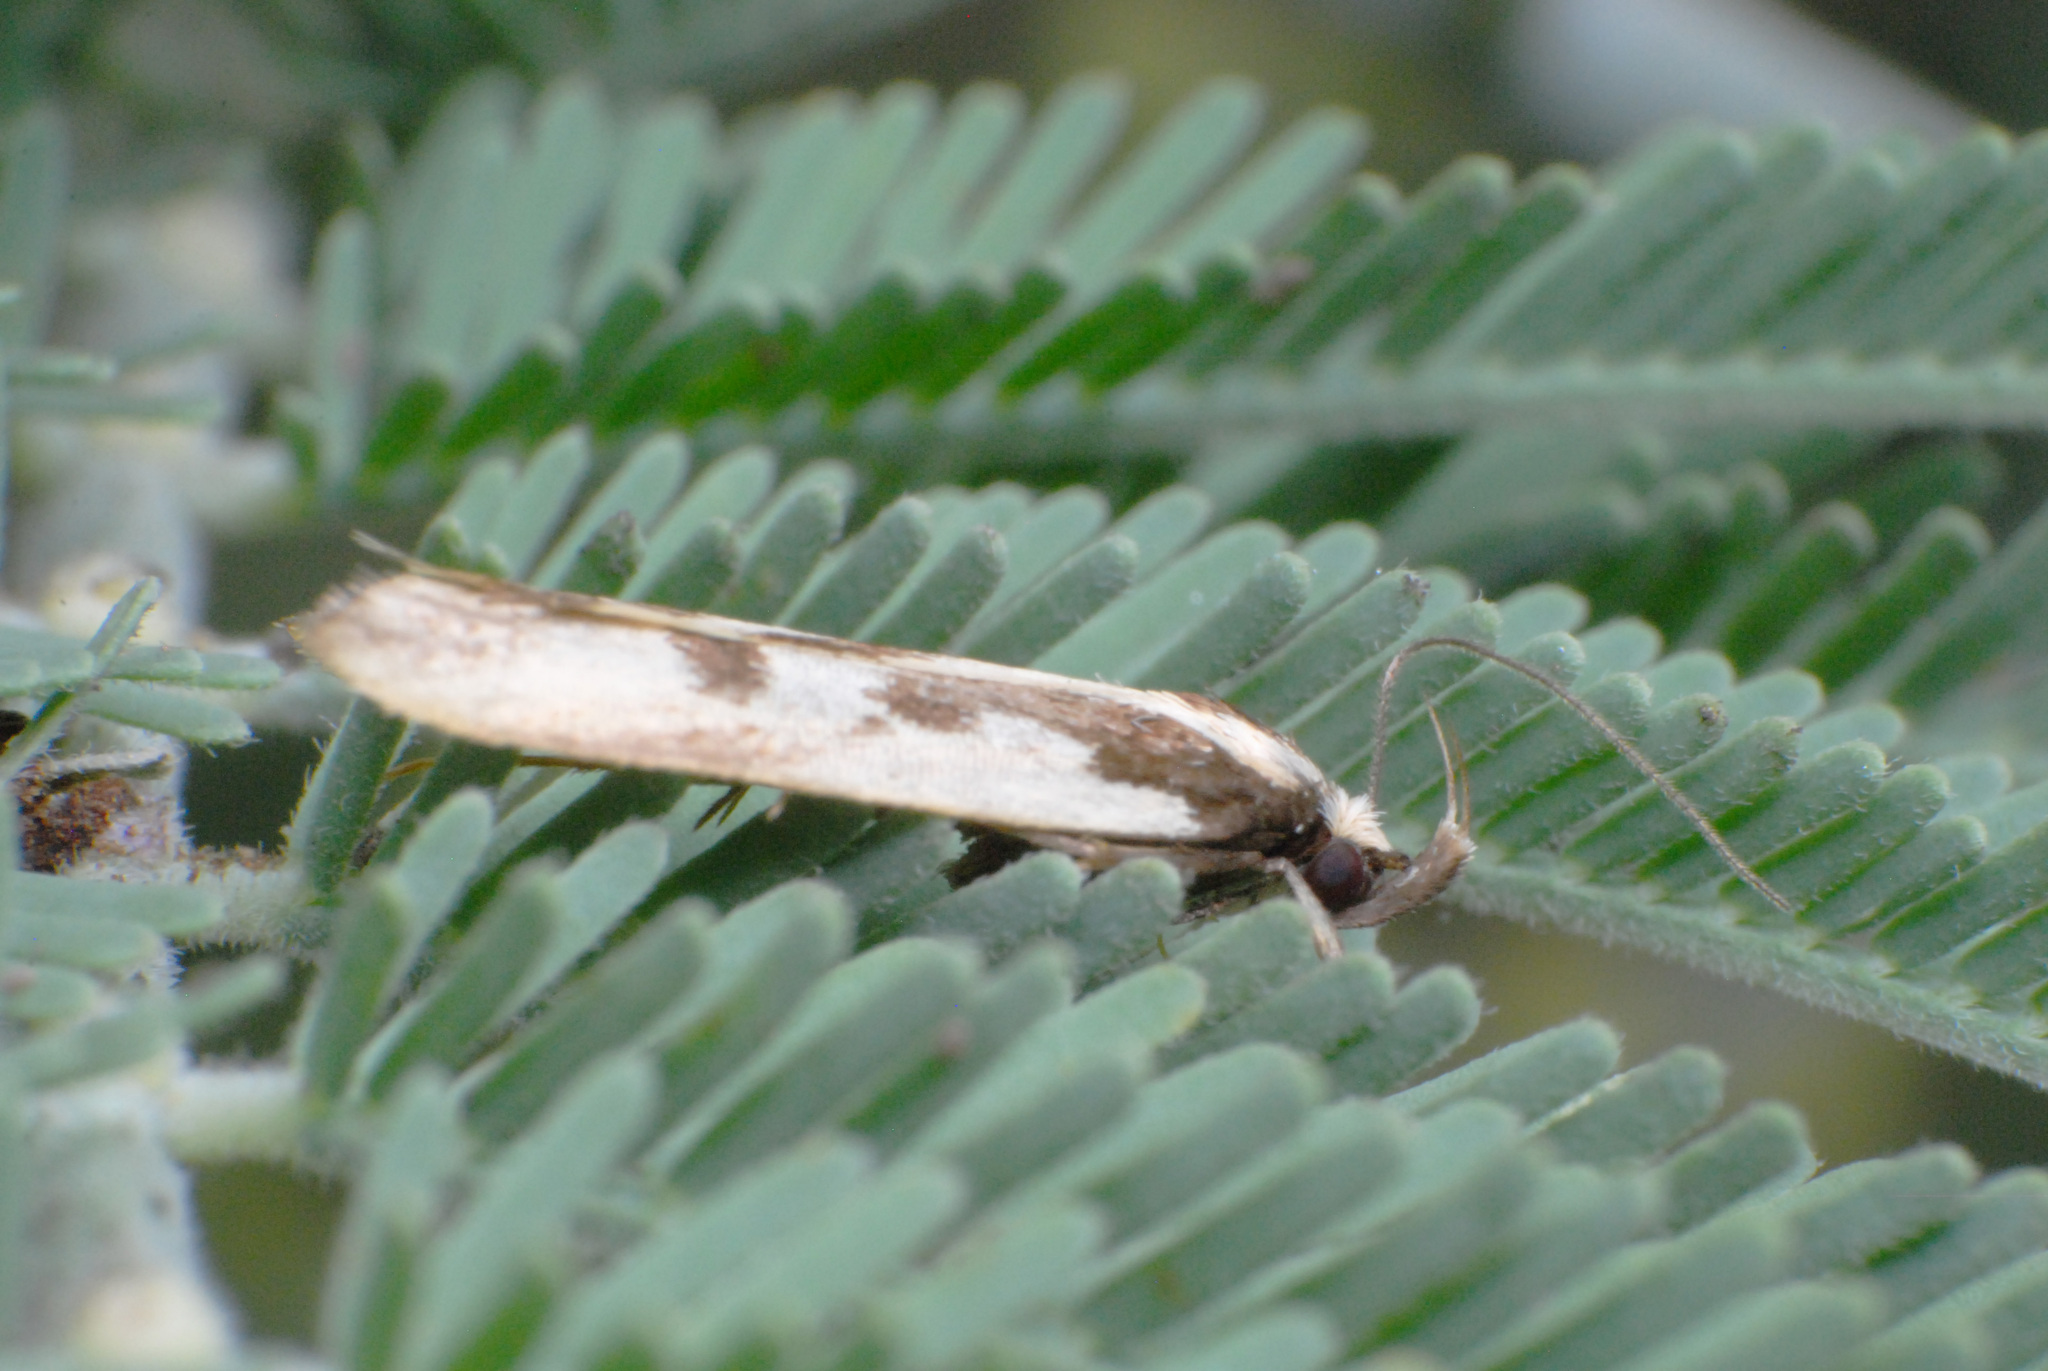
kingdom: Animalia
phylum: Arthropoda
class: Insecta
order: Lepidoptera
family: Oecophoridae
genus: Epithymema
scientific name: Epithymema incomposita
